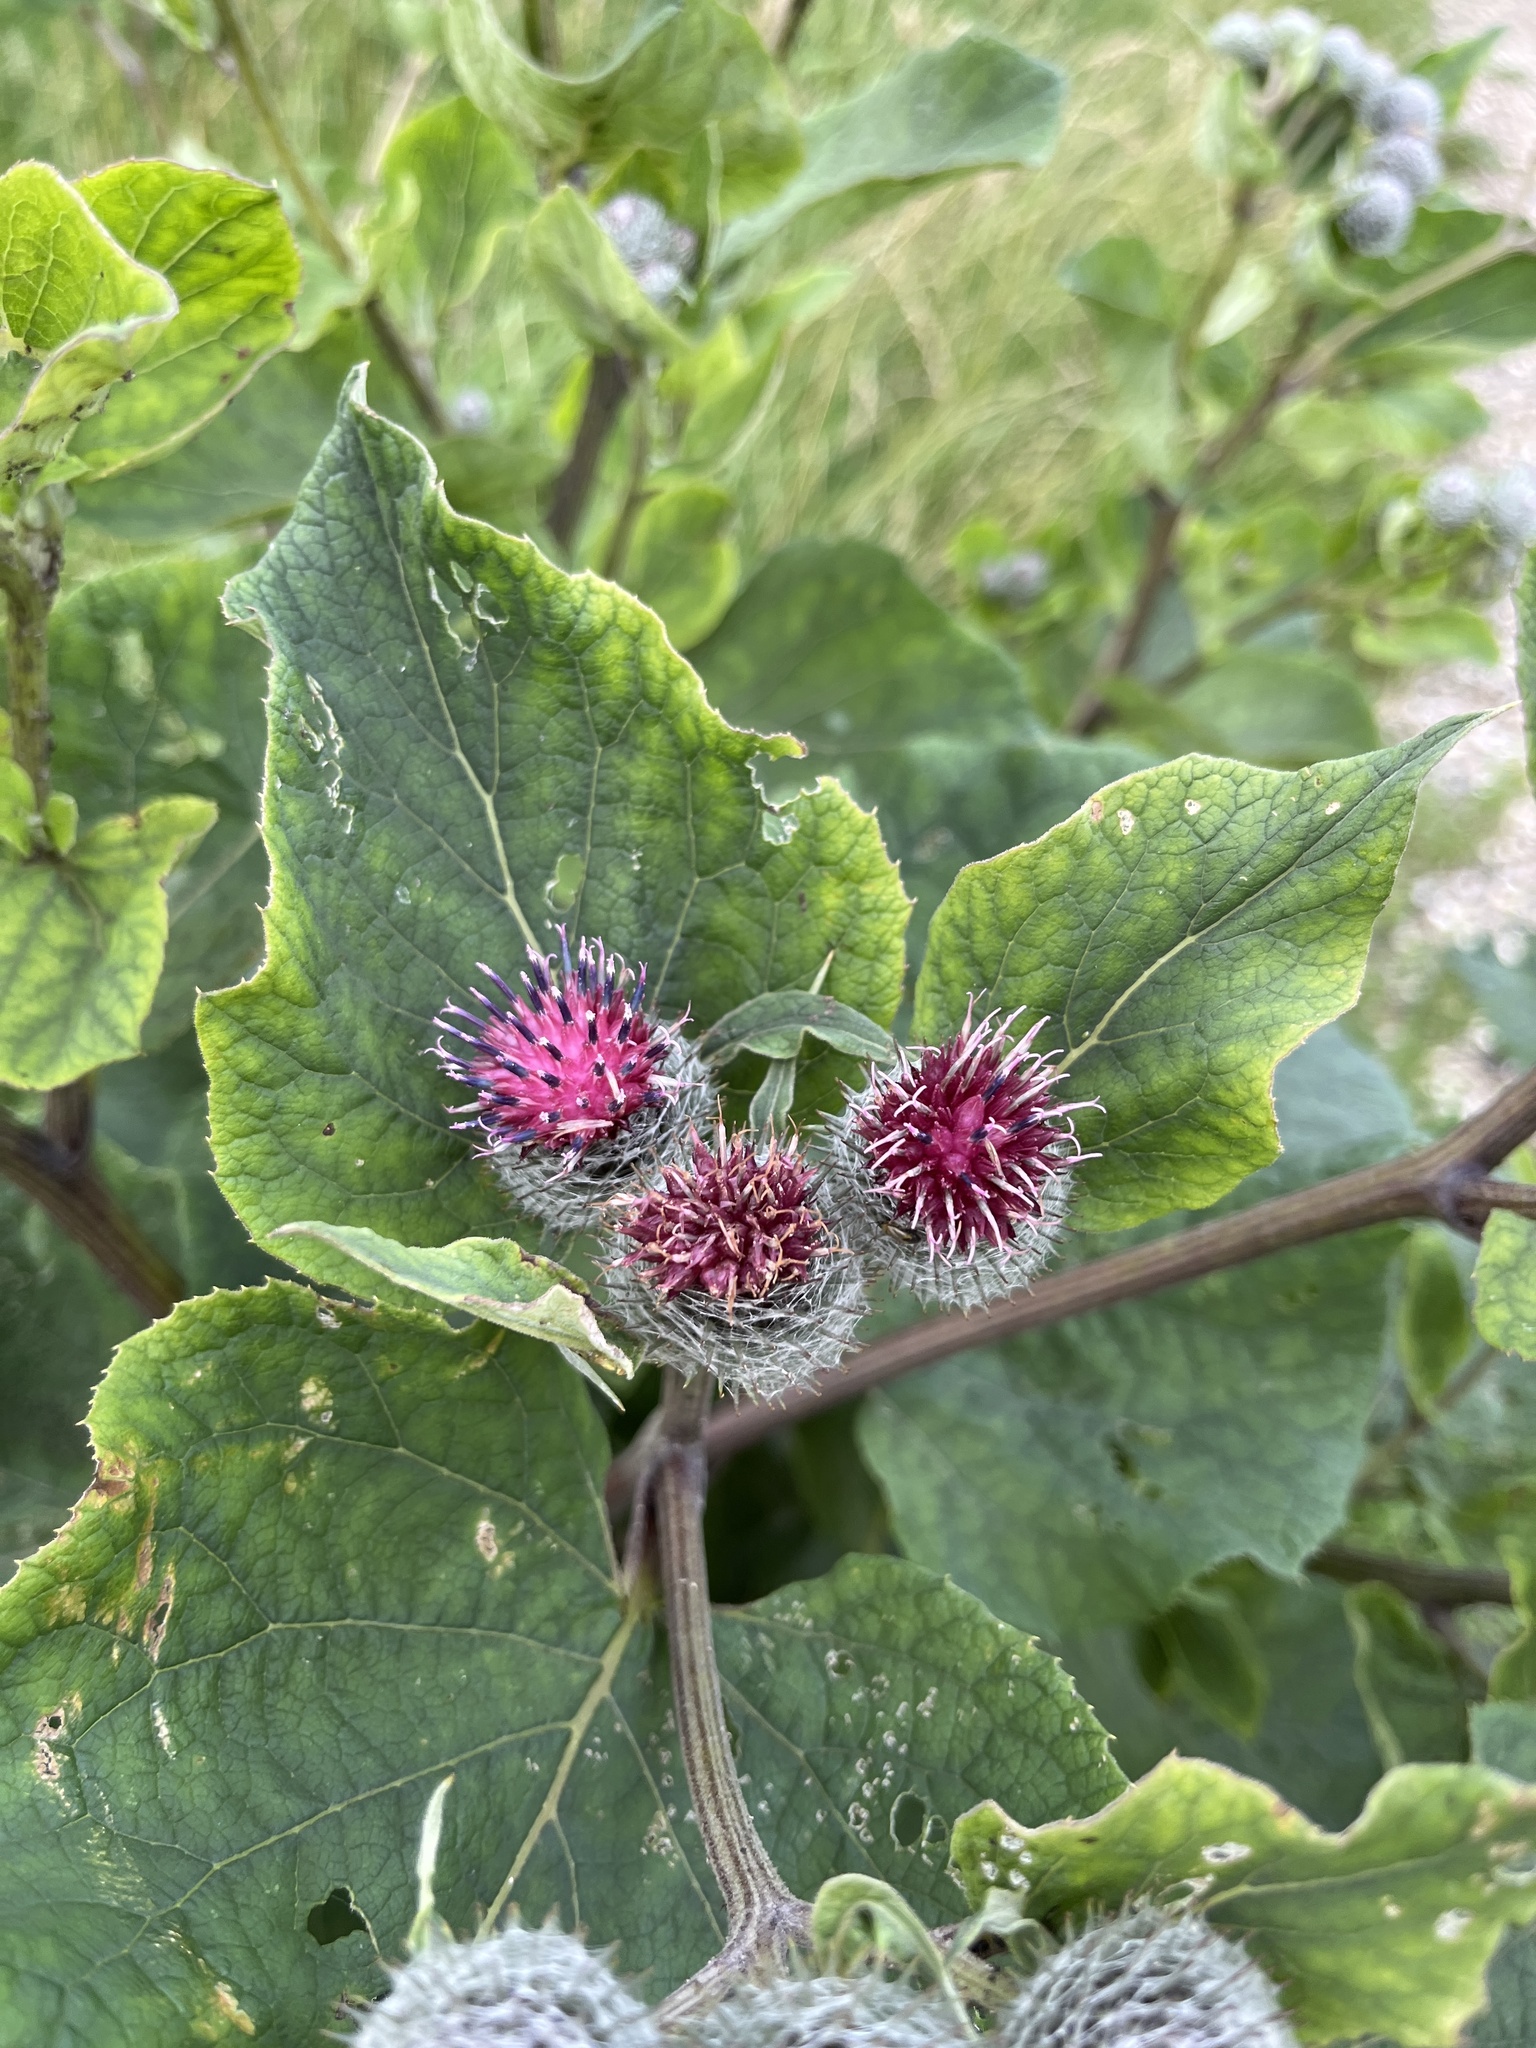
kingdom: Plantae
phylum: Tracheophyta
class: Magnoliopsida
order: Asterales
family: Asteraceae
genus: Arctium
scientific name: Arctium tomentosum
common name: Woolly burdock
